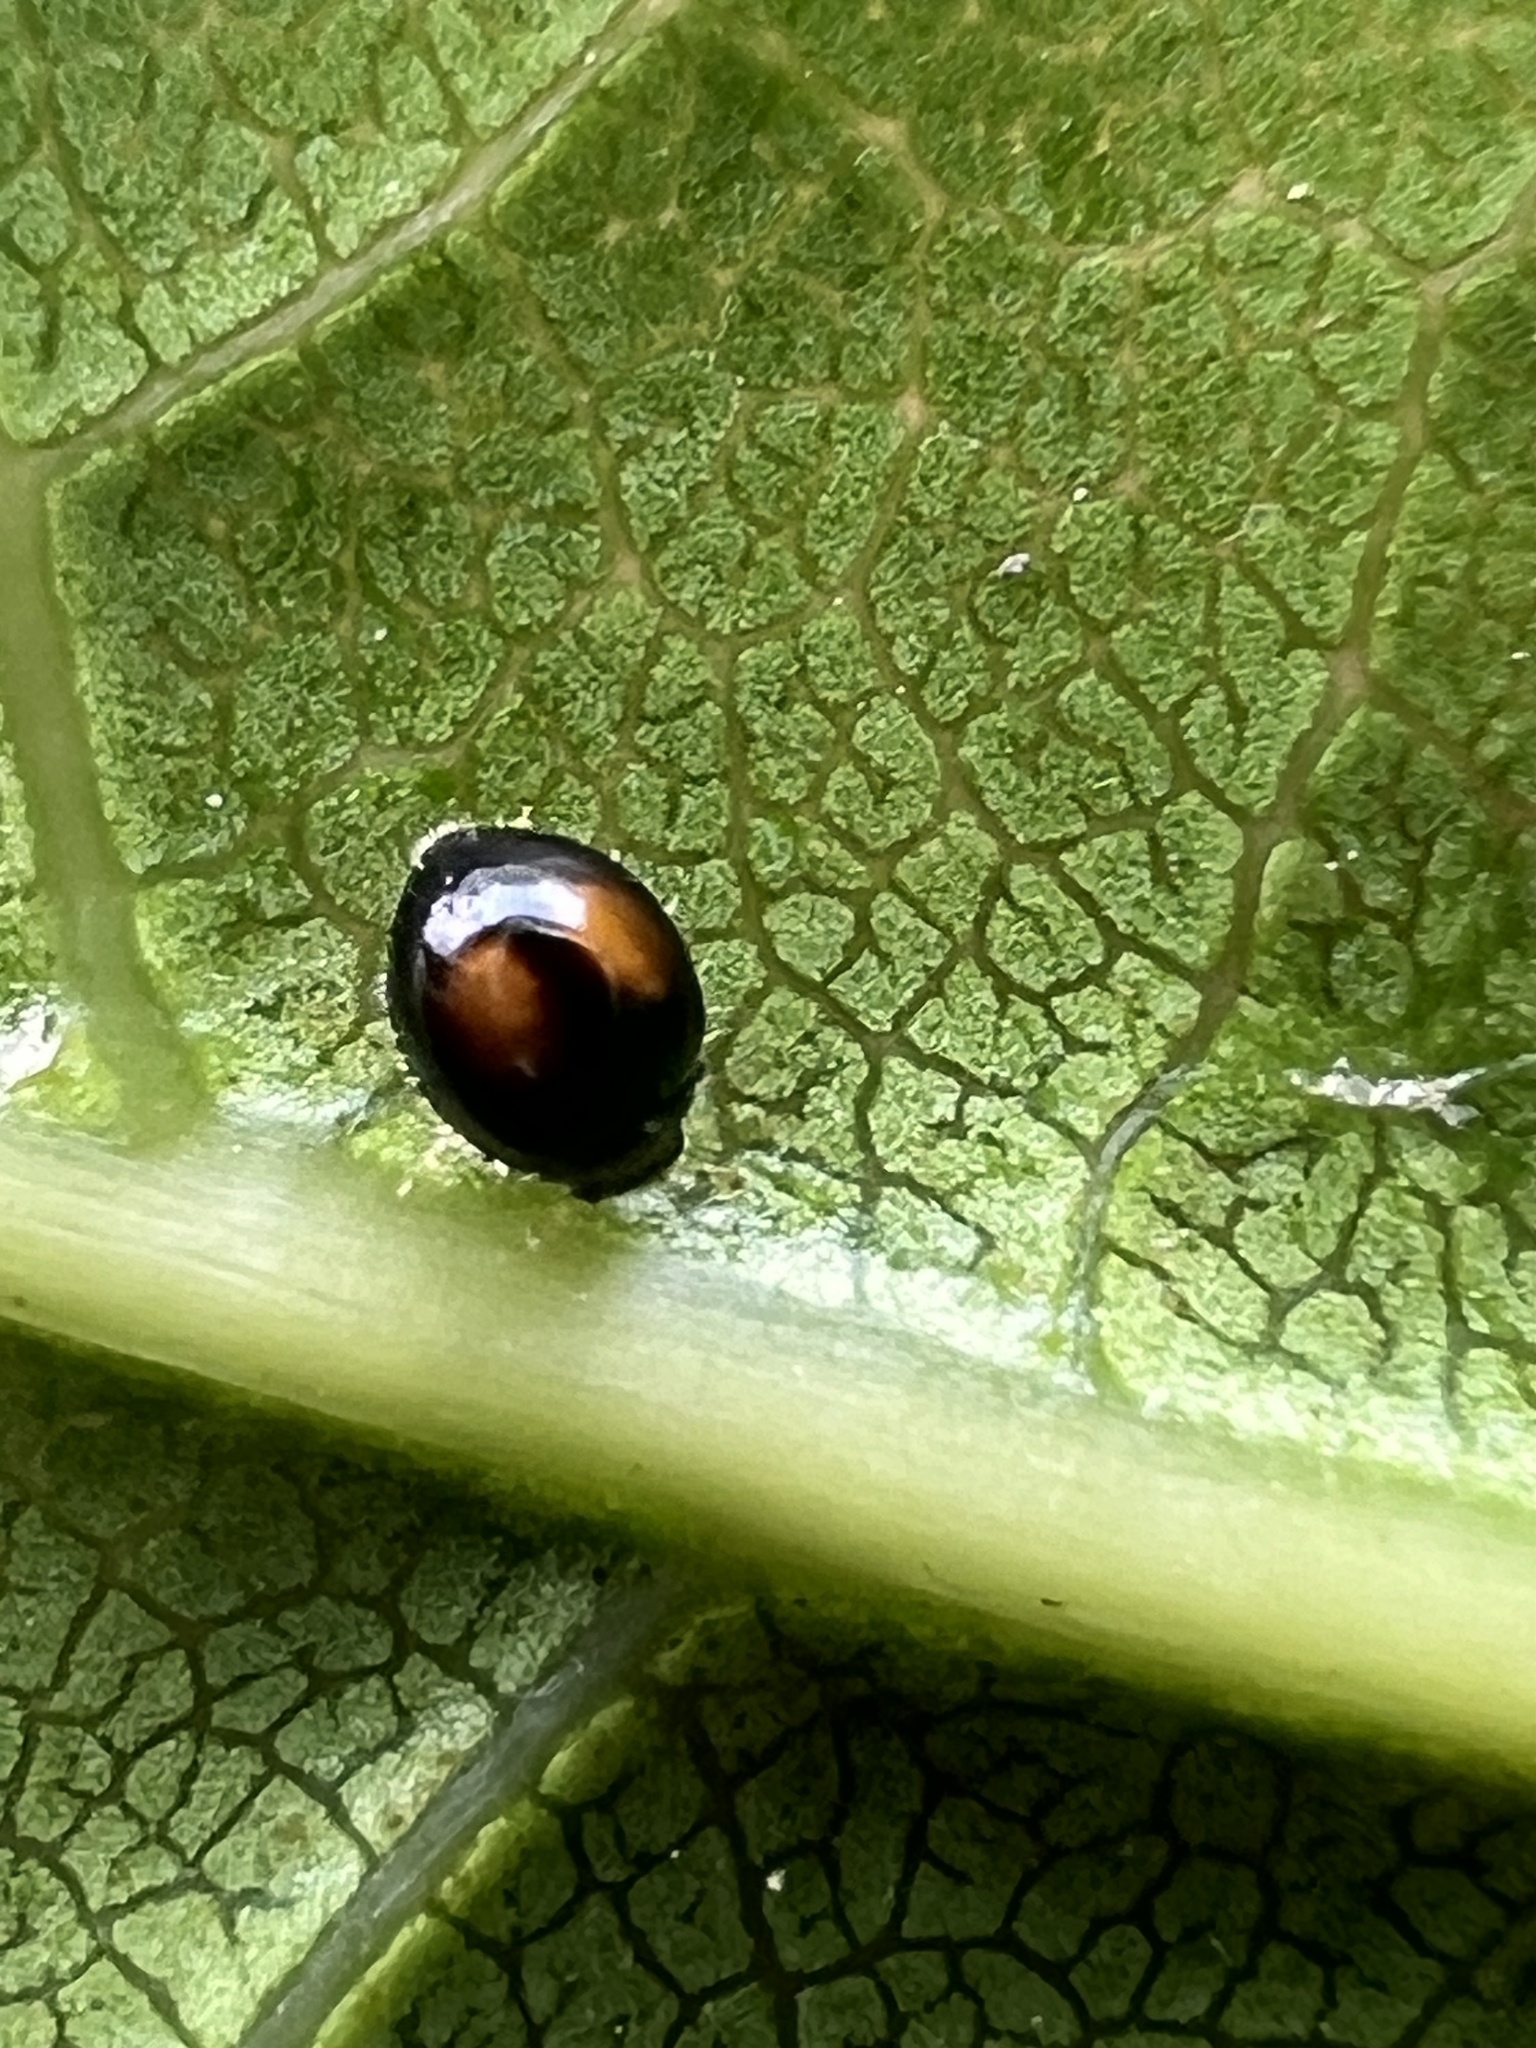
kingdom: Animalia
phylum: Arthropoda
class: Insecta
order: Coleoptera
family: Coccinellidae
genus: Serangium
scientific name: Serangium maculigerum
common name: Lady beetle
